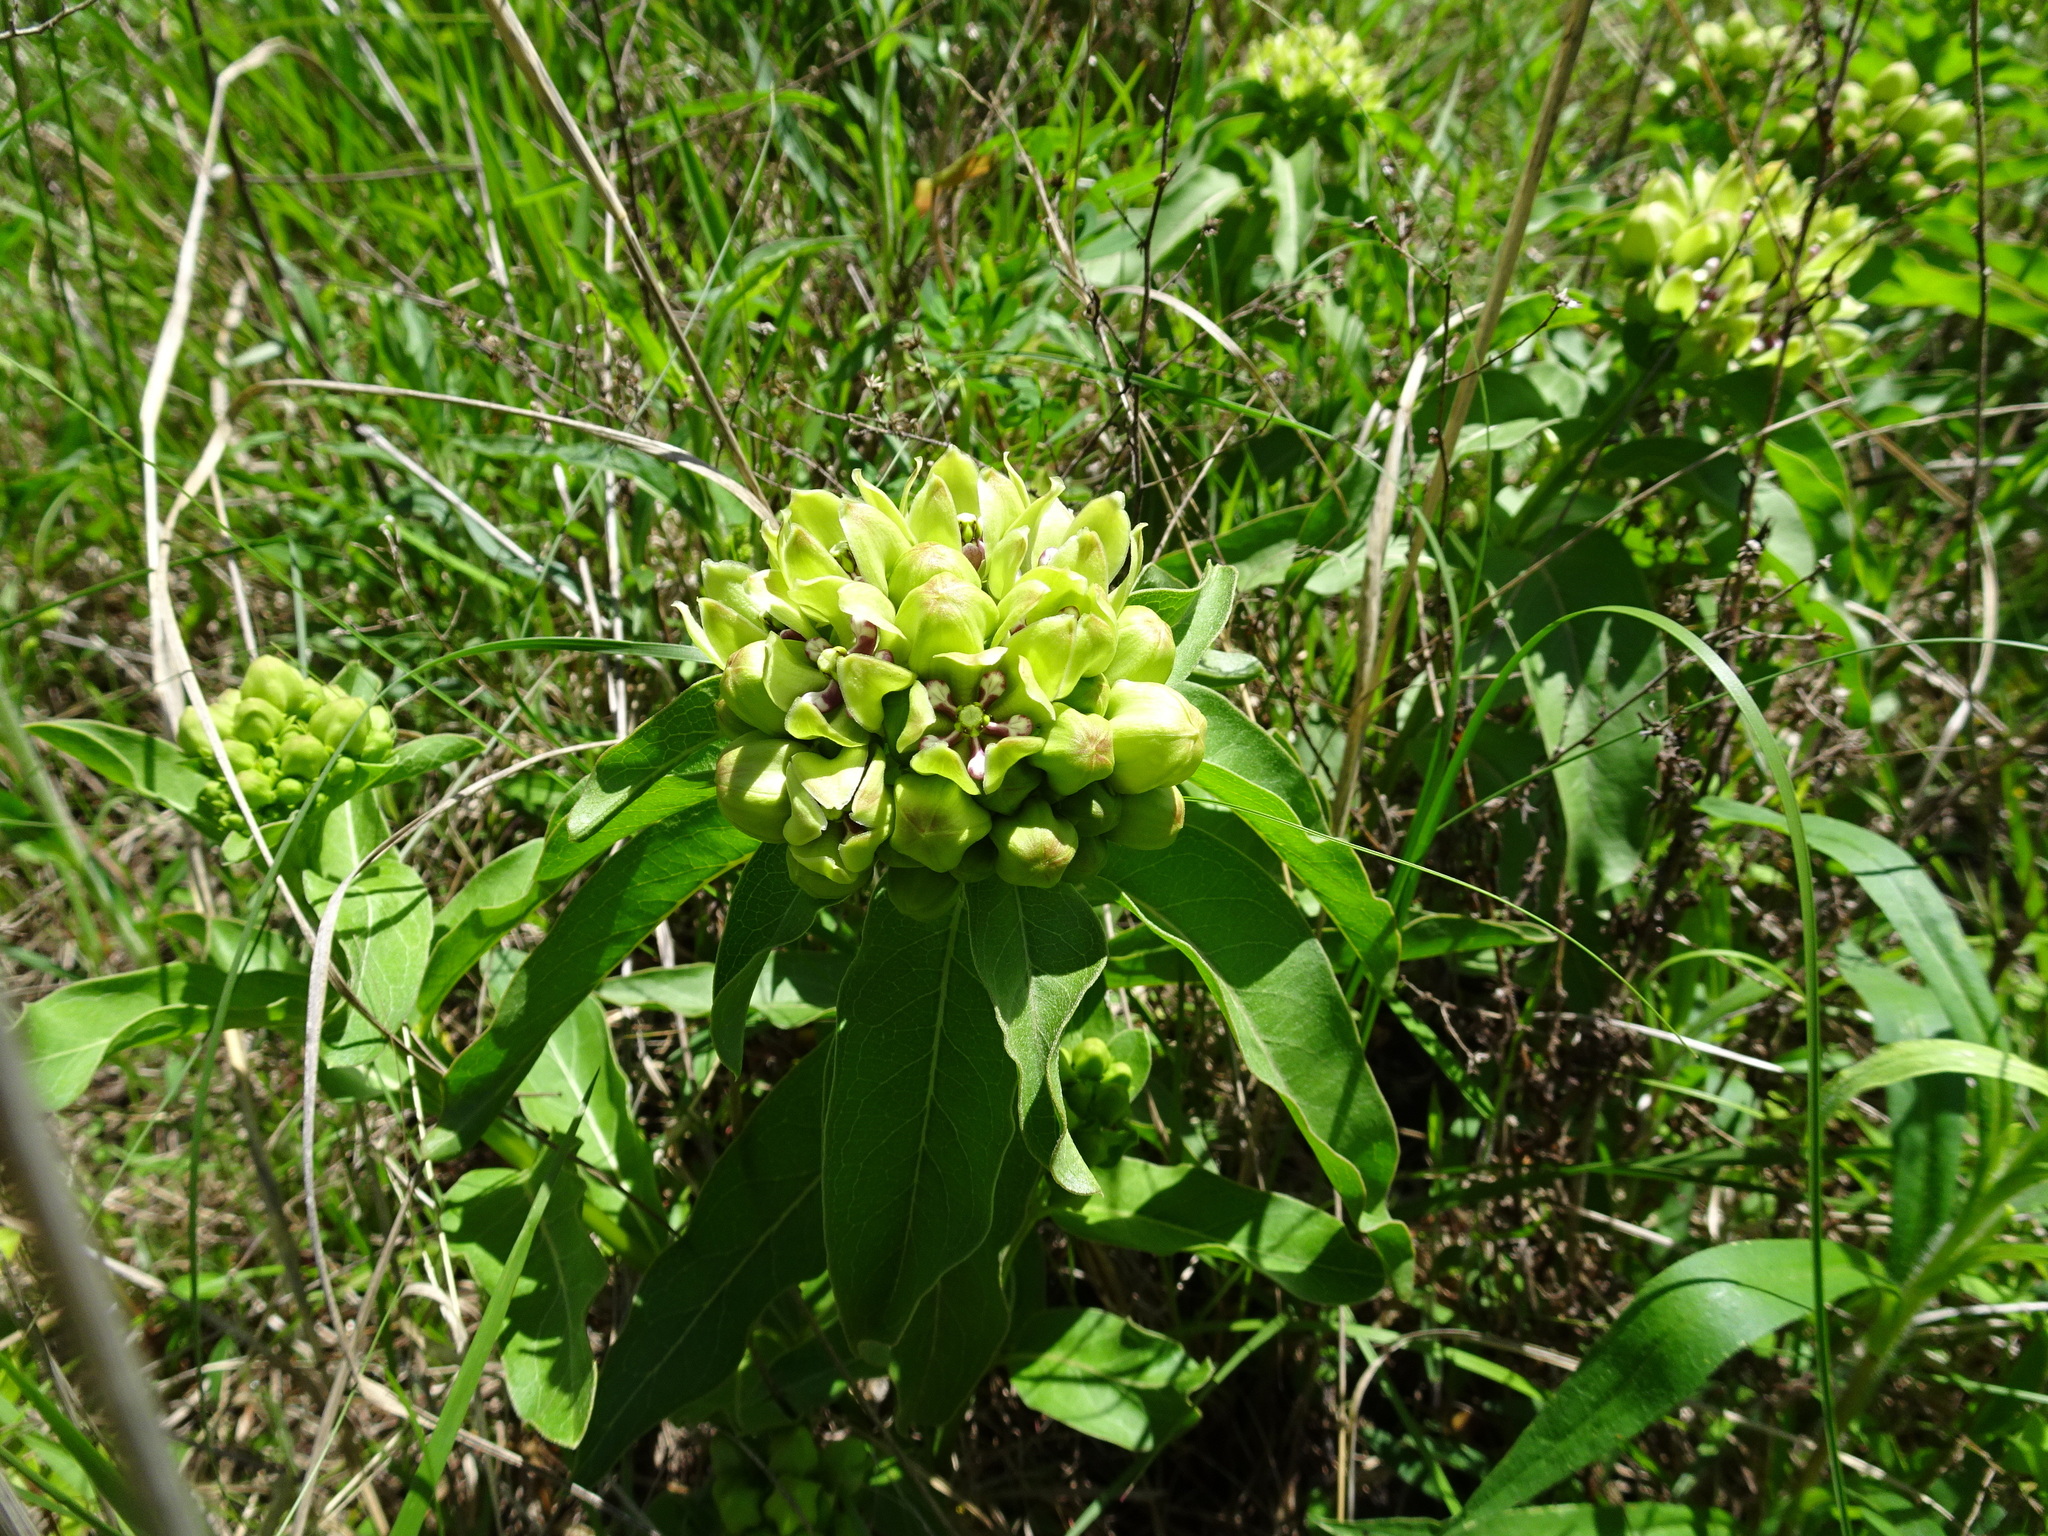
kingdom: Plantae
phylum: Tracheophyta
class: Magnoliopsida
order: Gentianales
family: Apocynaceae
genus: Asclepias
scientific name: Asclepias viridis
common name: Antelope-horns
